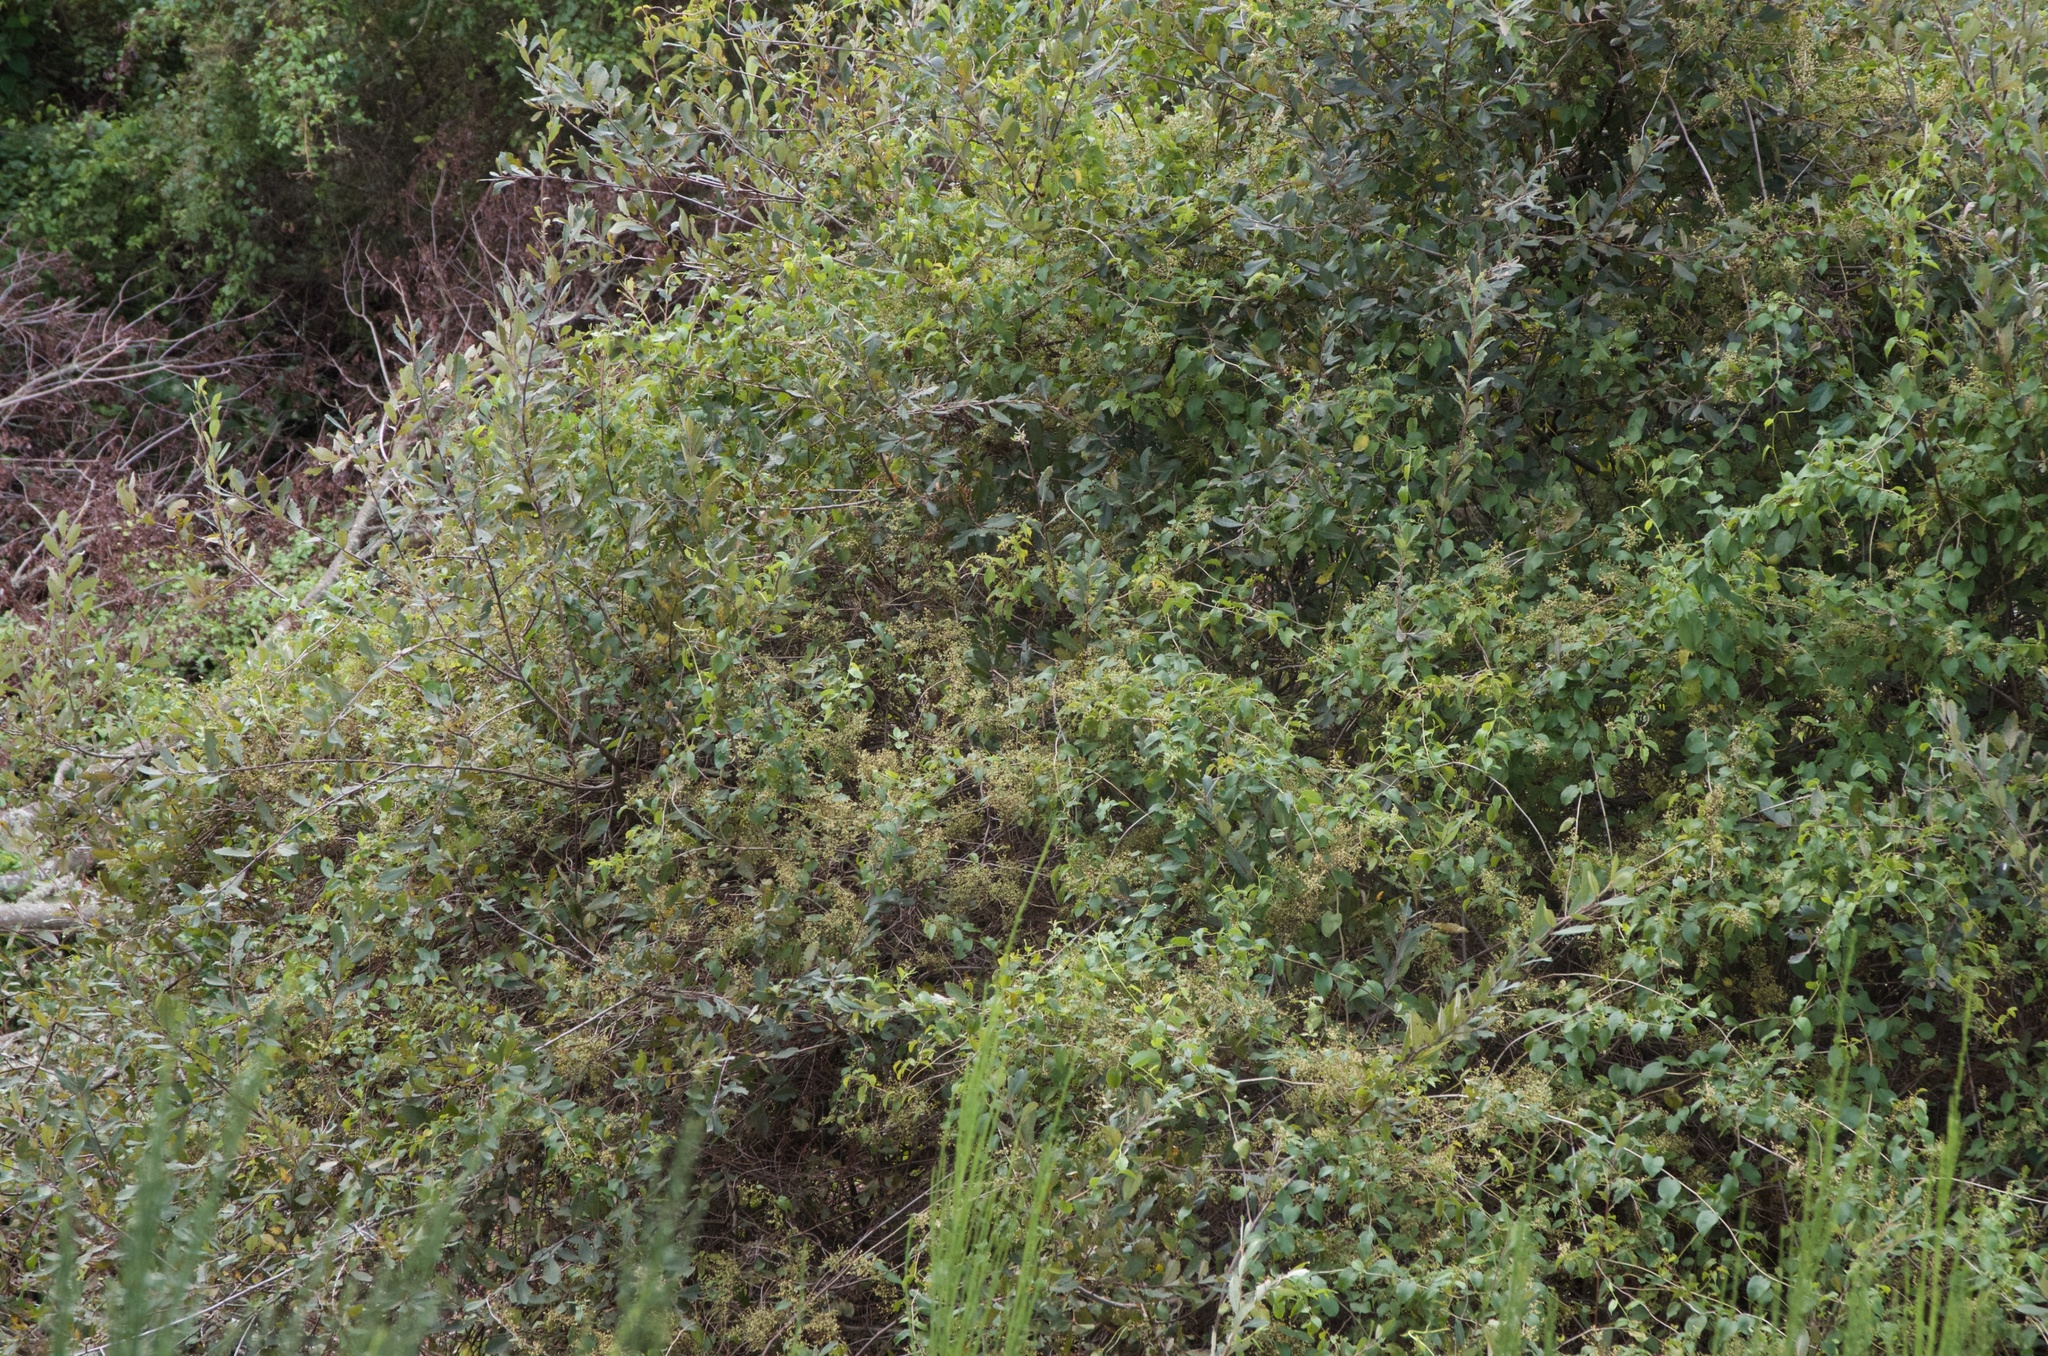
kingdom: Plantae
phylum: Tracheophyta
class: Magnoliopsida
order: Caryophyllales
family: Polygonaceae
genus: Muehlenbeckia
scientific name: Muehlenbeckia australis
